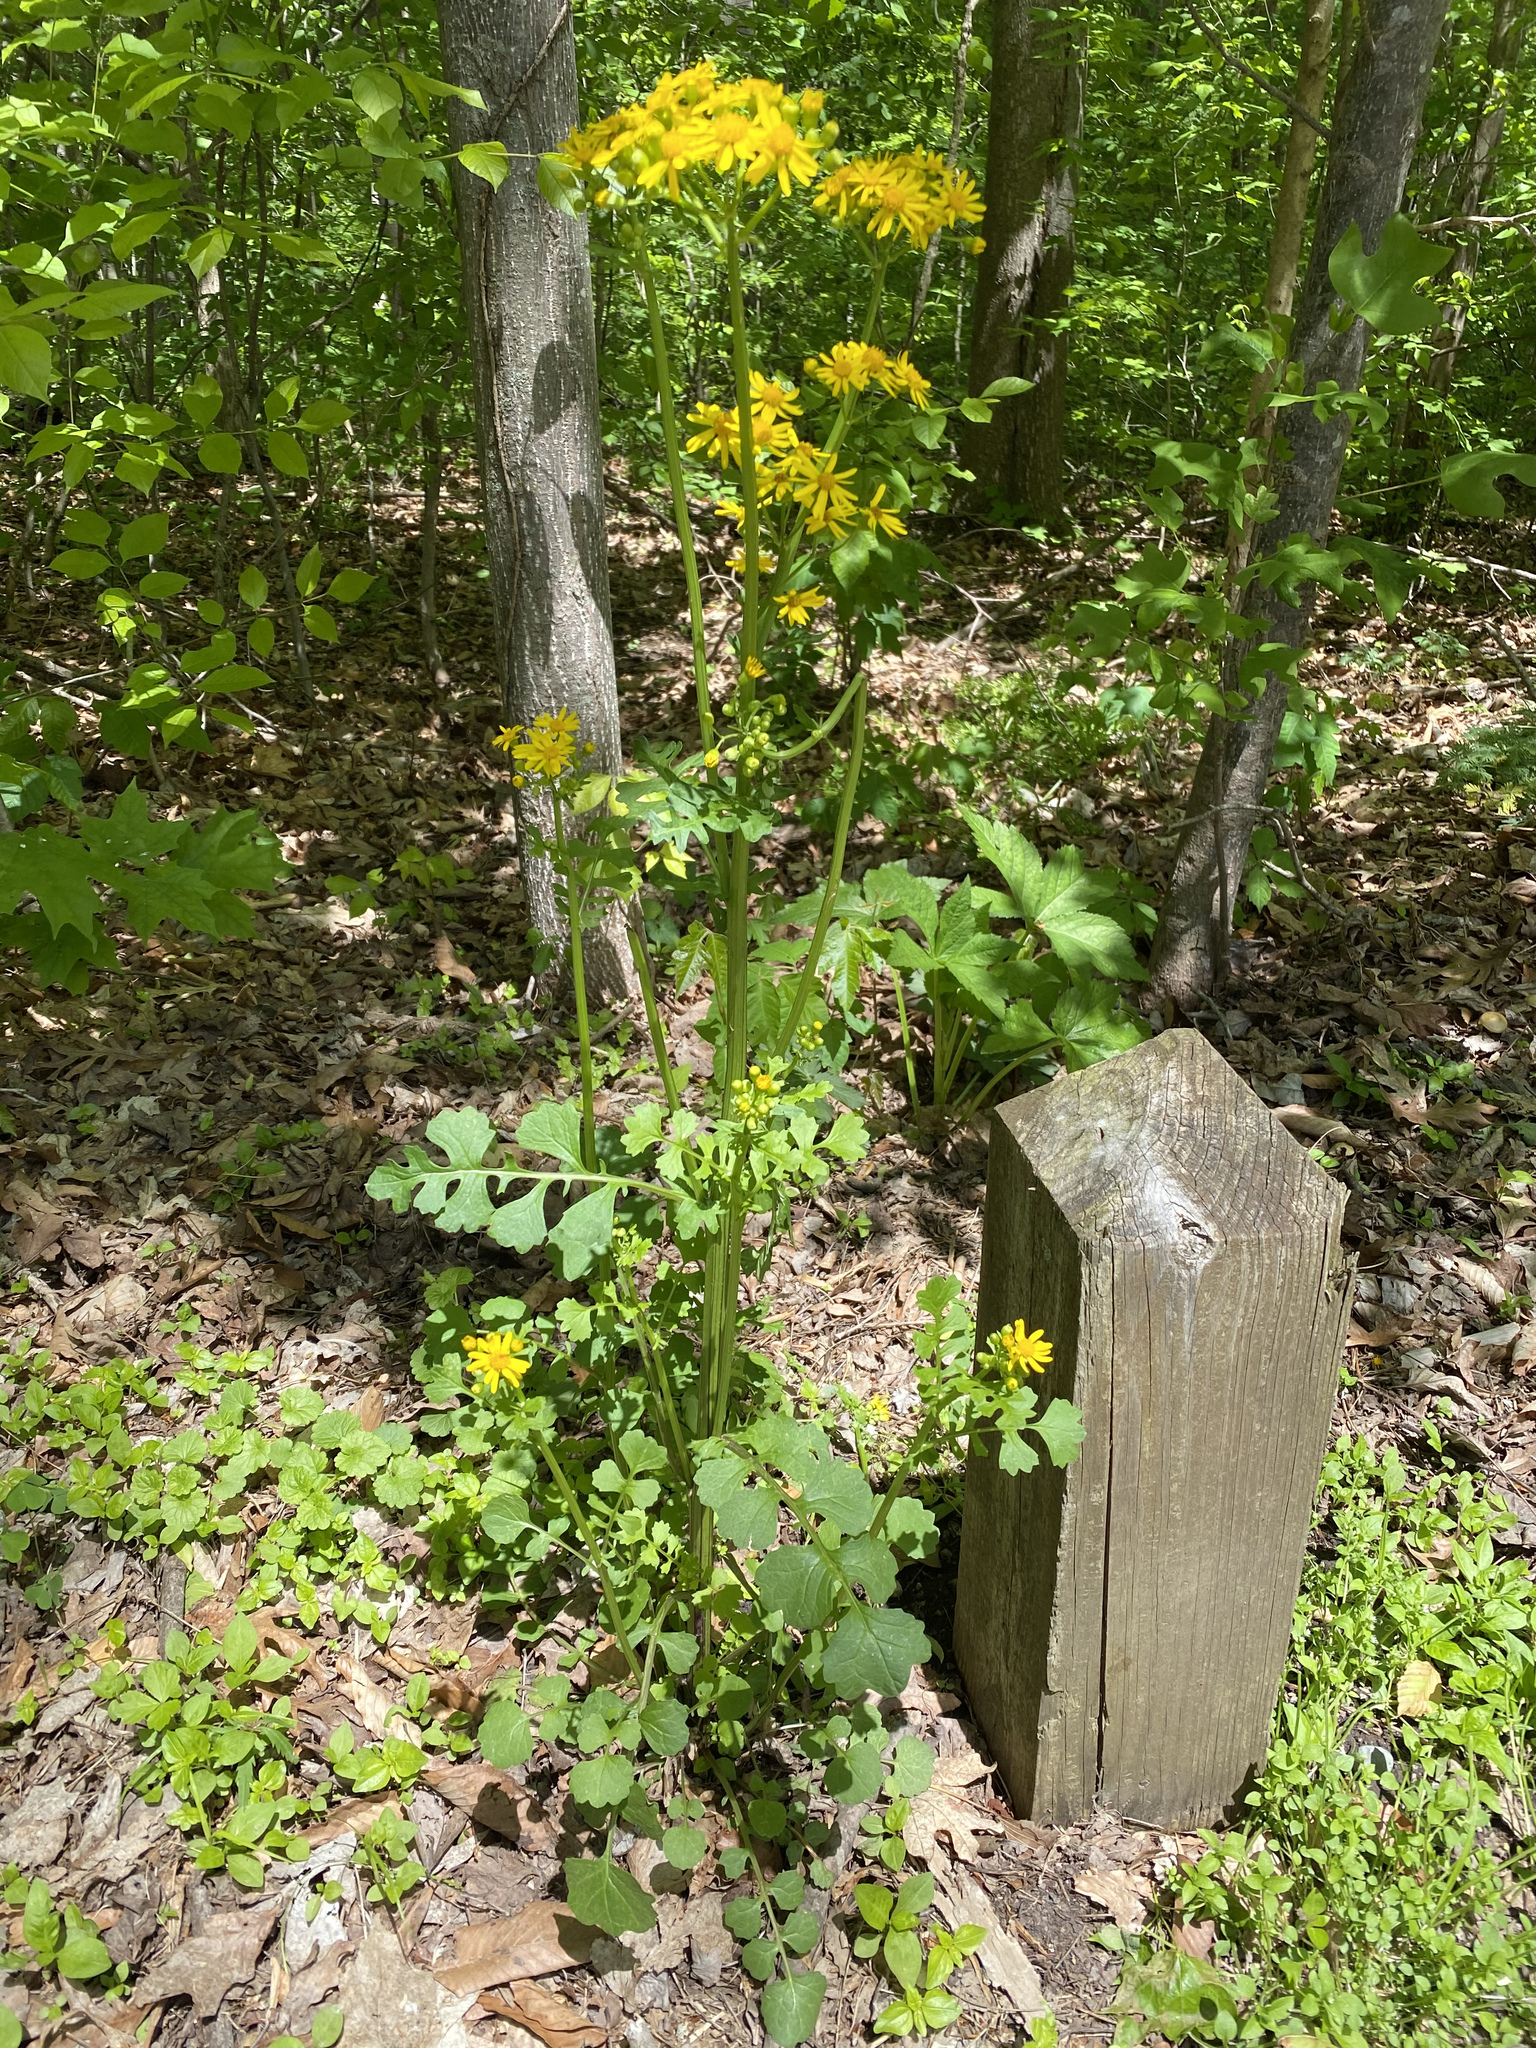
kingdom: Plantae
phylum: Tracheophyta
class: Magnoliopsida
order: Asterales
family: Asteraceae
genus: Packera
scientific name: Packera glabella
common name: Butterweed
